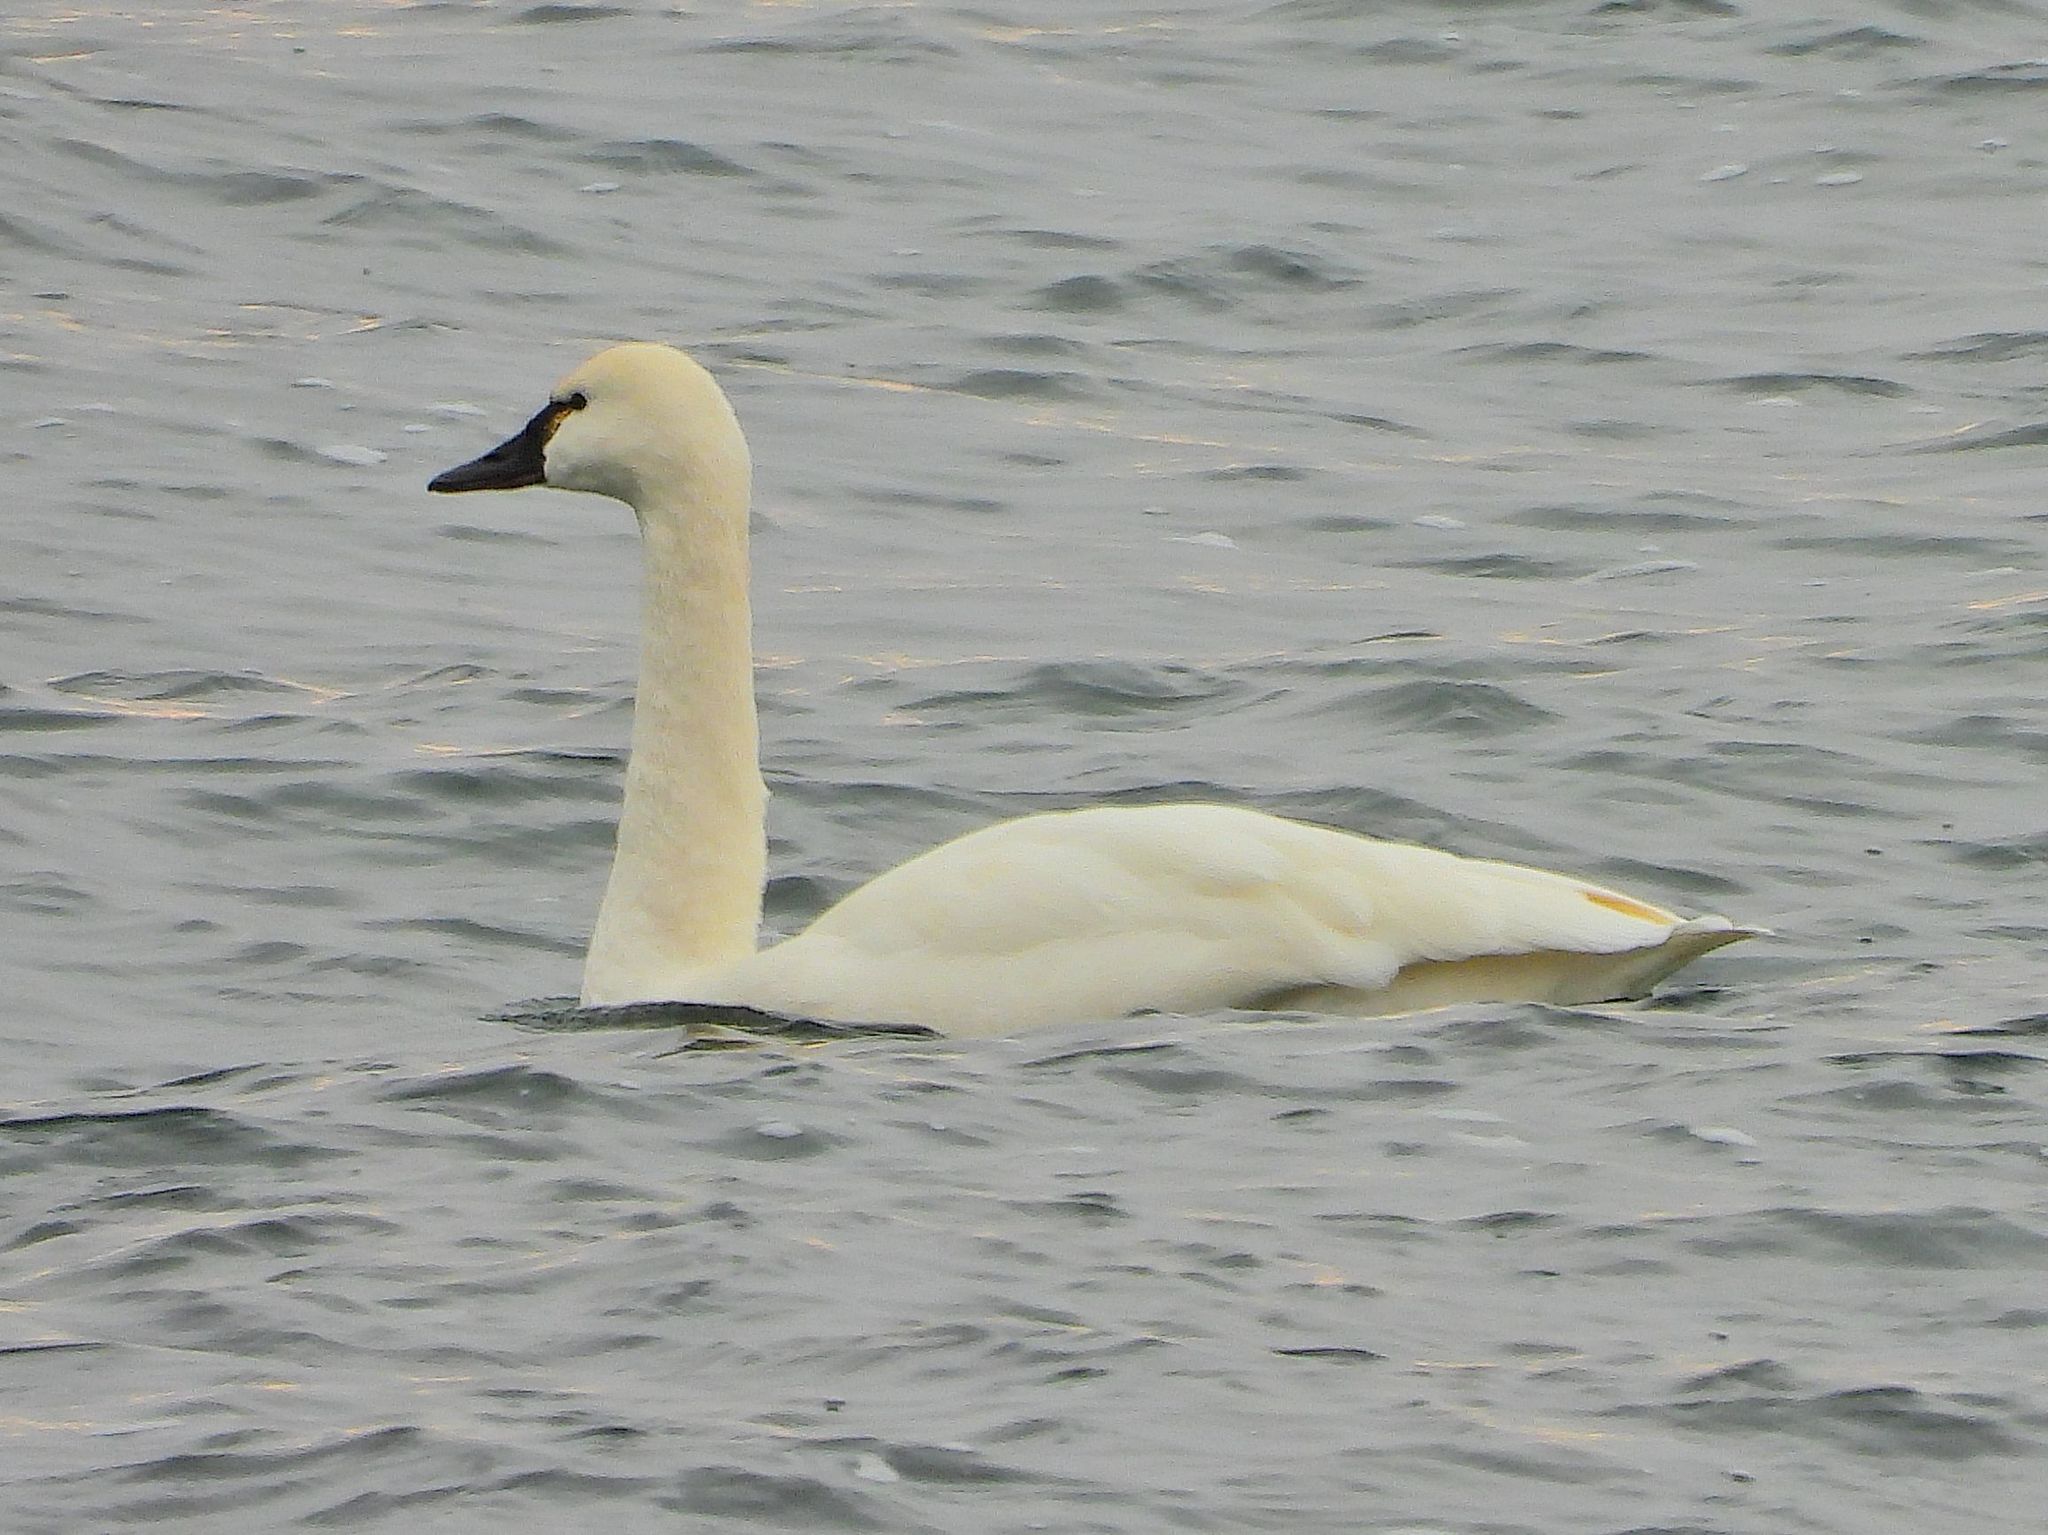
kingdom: Animalia
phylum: Chordata
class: Aves
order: Anseriformes
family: Anatidae
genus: Cygnus
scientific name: Cygnus columbianus
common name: Tundra swan
